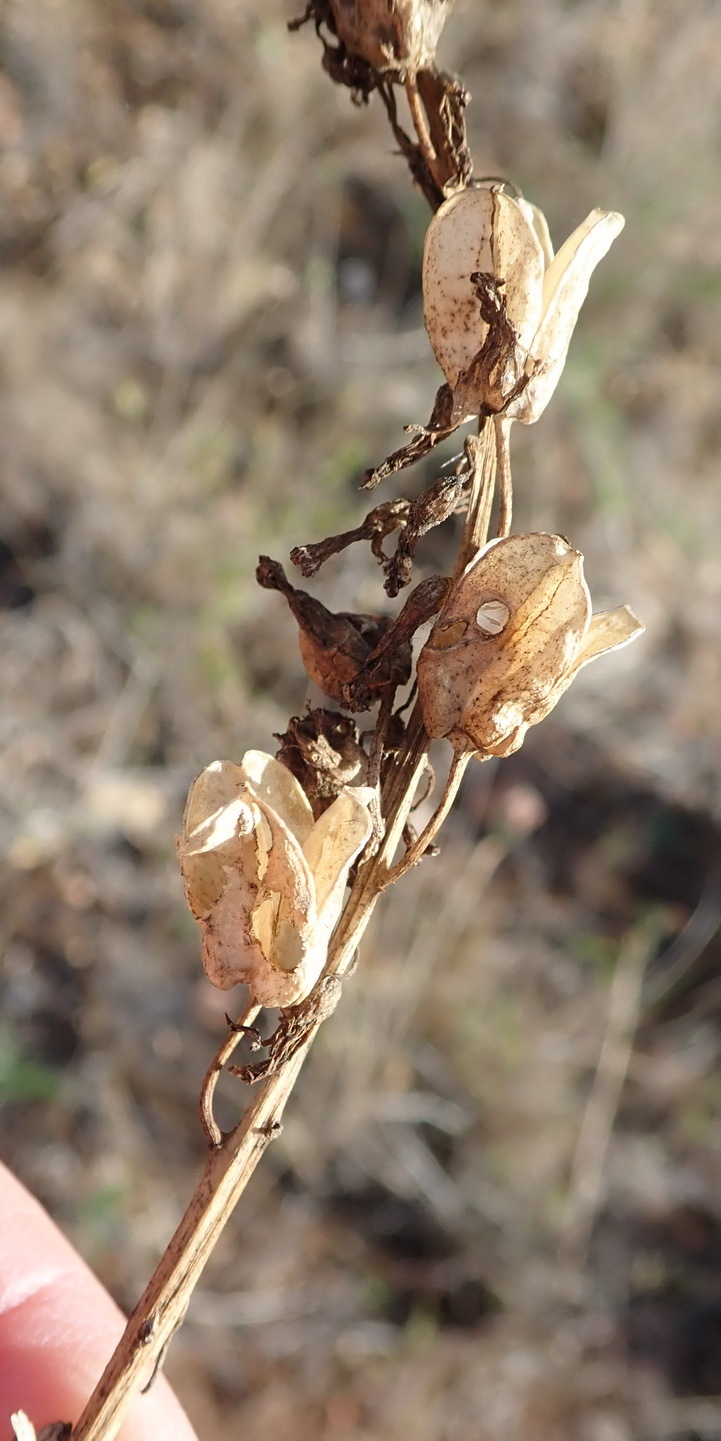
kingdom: Plantae
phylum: Tracheophyta
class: Liliopsida
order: Asparagales
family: Asparagaceae
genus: Drimia
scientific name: Drimia elata
